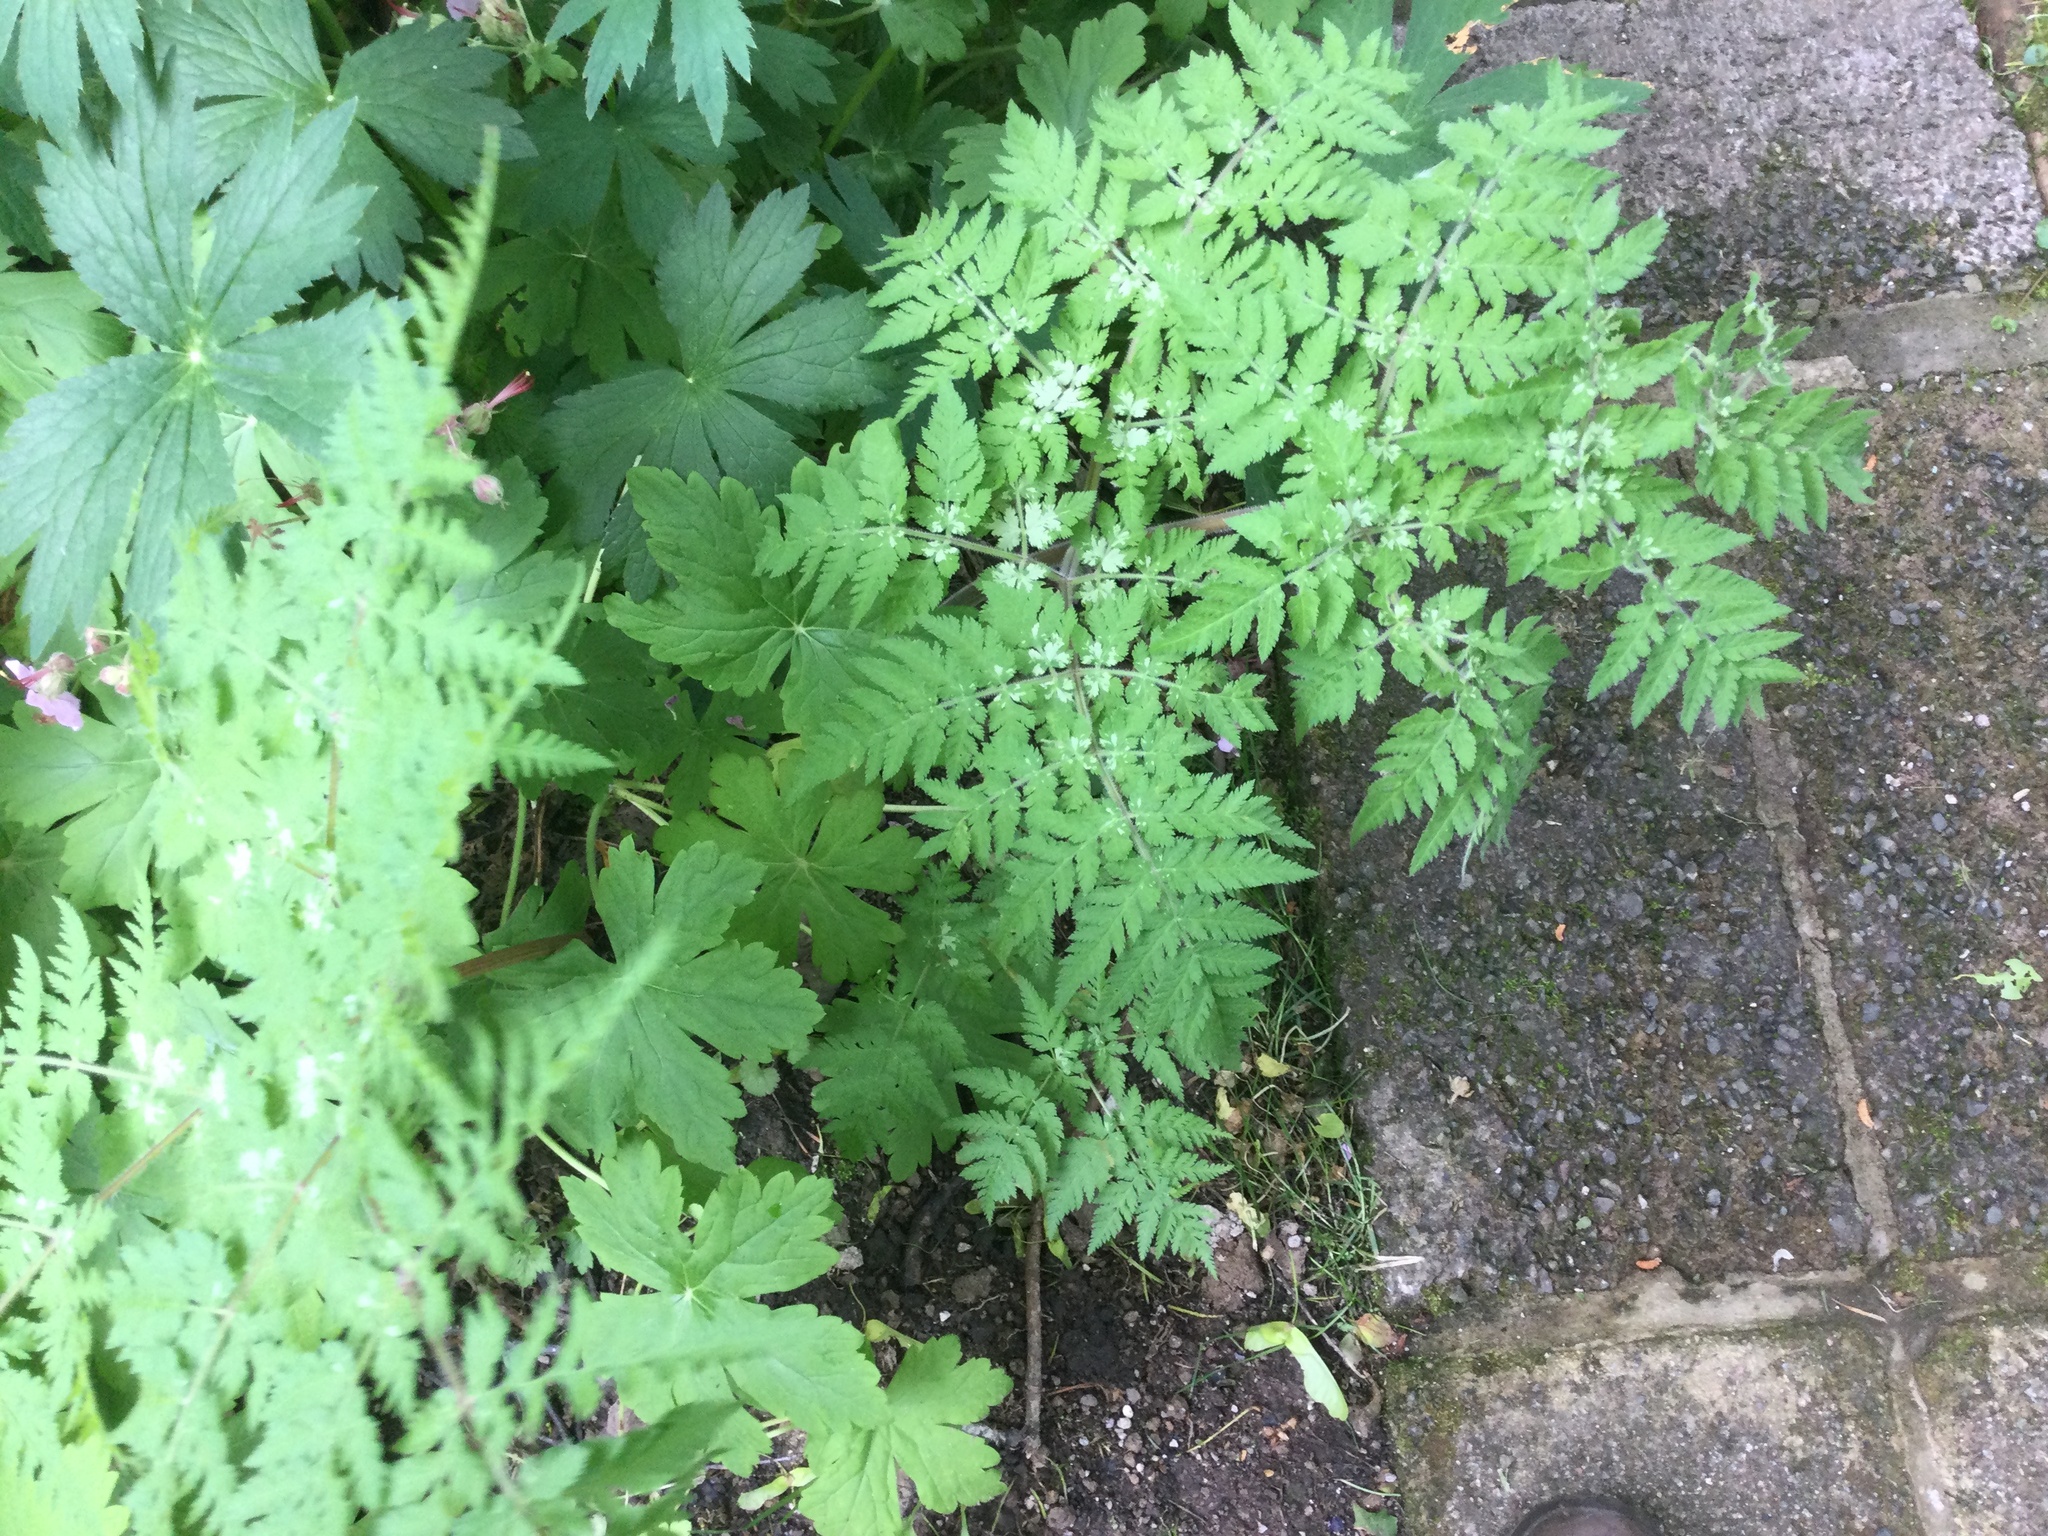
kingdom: Plantae
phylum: Tracheophyta
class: Magnoliopsida
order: Apiales
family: Apiaceae
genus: Myrrhis
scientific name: Myrrhis odorata
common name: Sweet cicely
